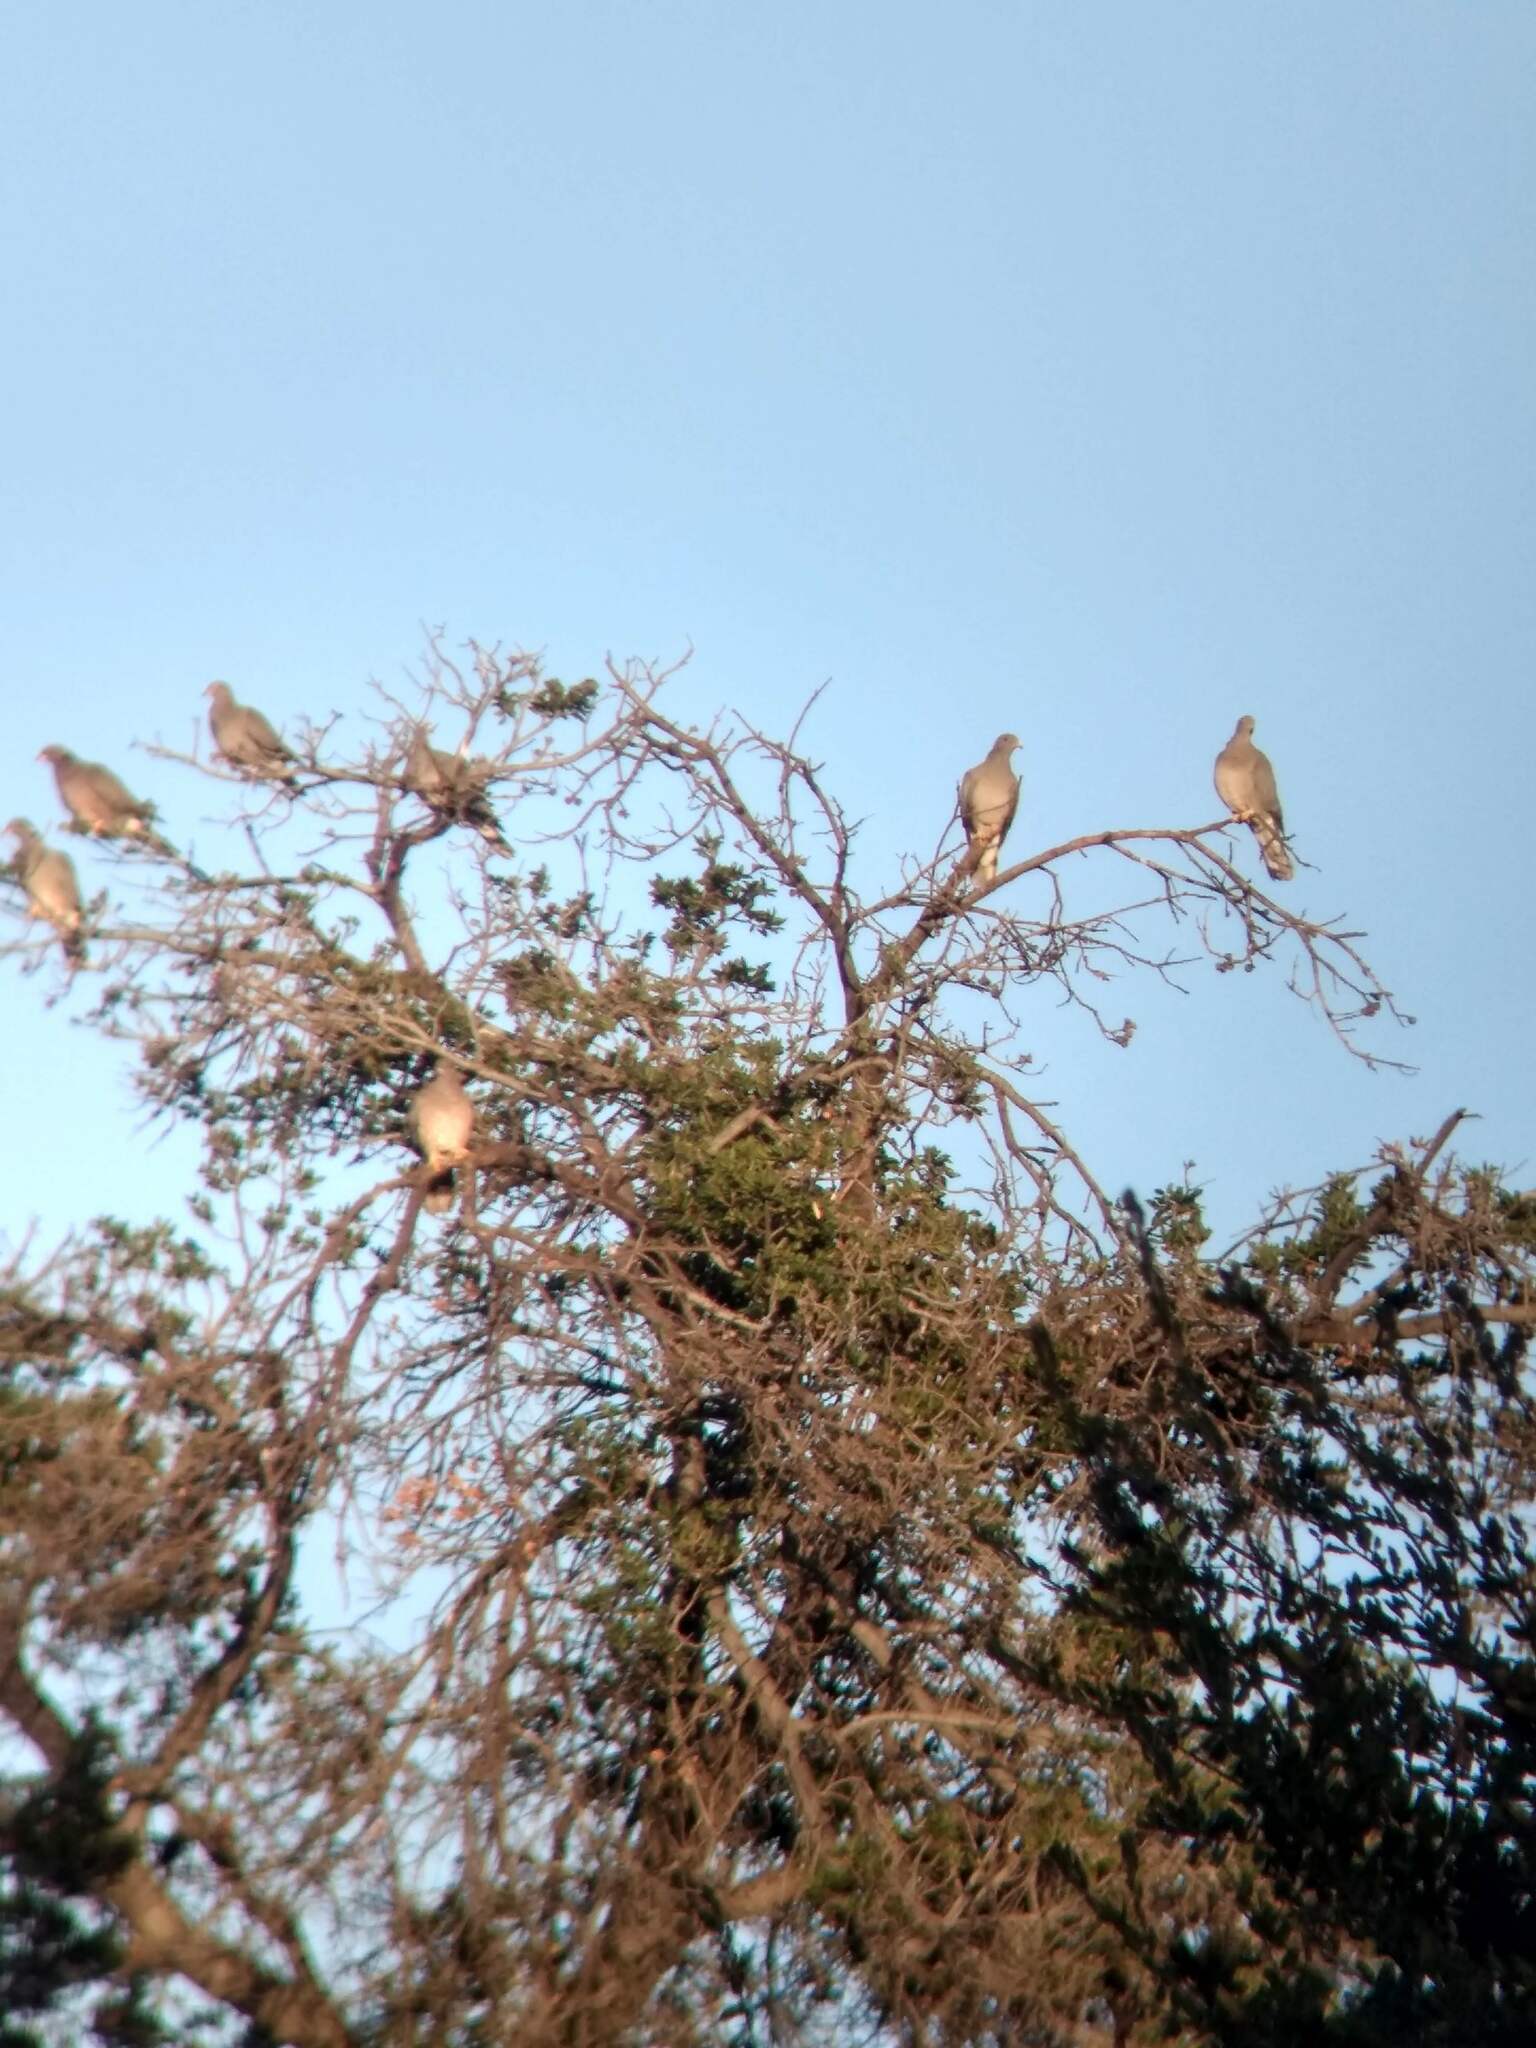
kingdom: Animalia
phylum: Chordata
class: Aves
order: Columbiformes
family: Columbidae
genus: Patagioenas
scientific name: Patagioenas fasciata
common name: Band-tailed pigeon
